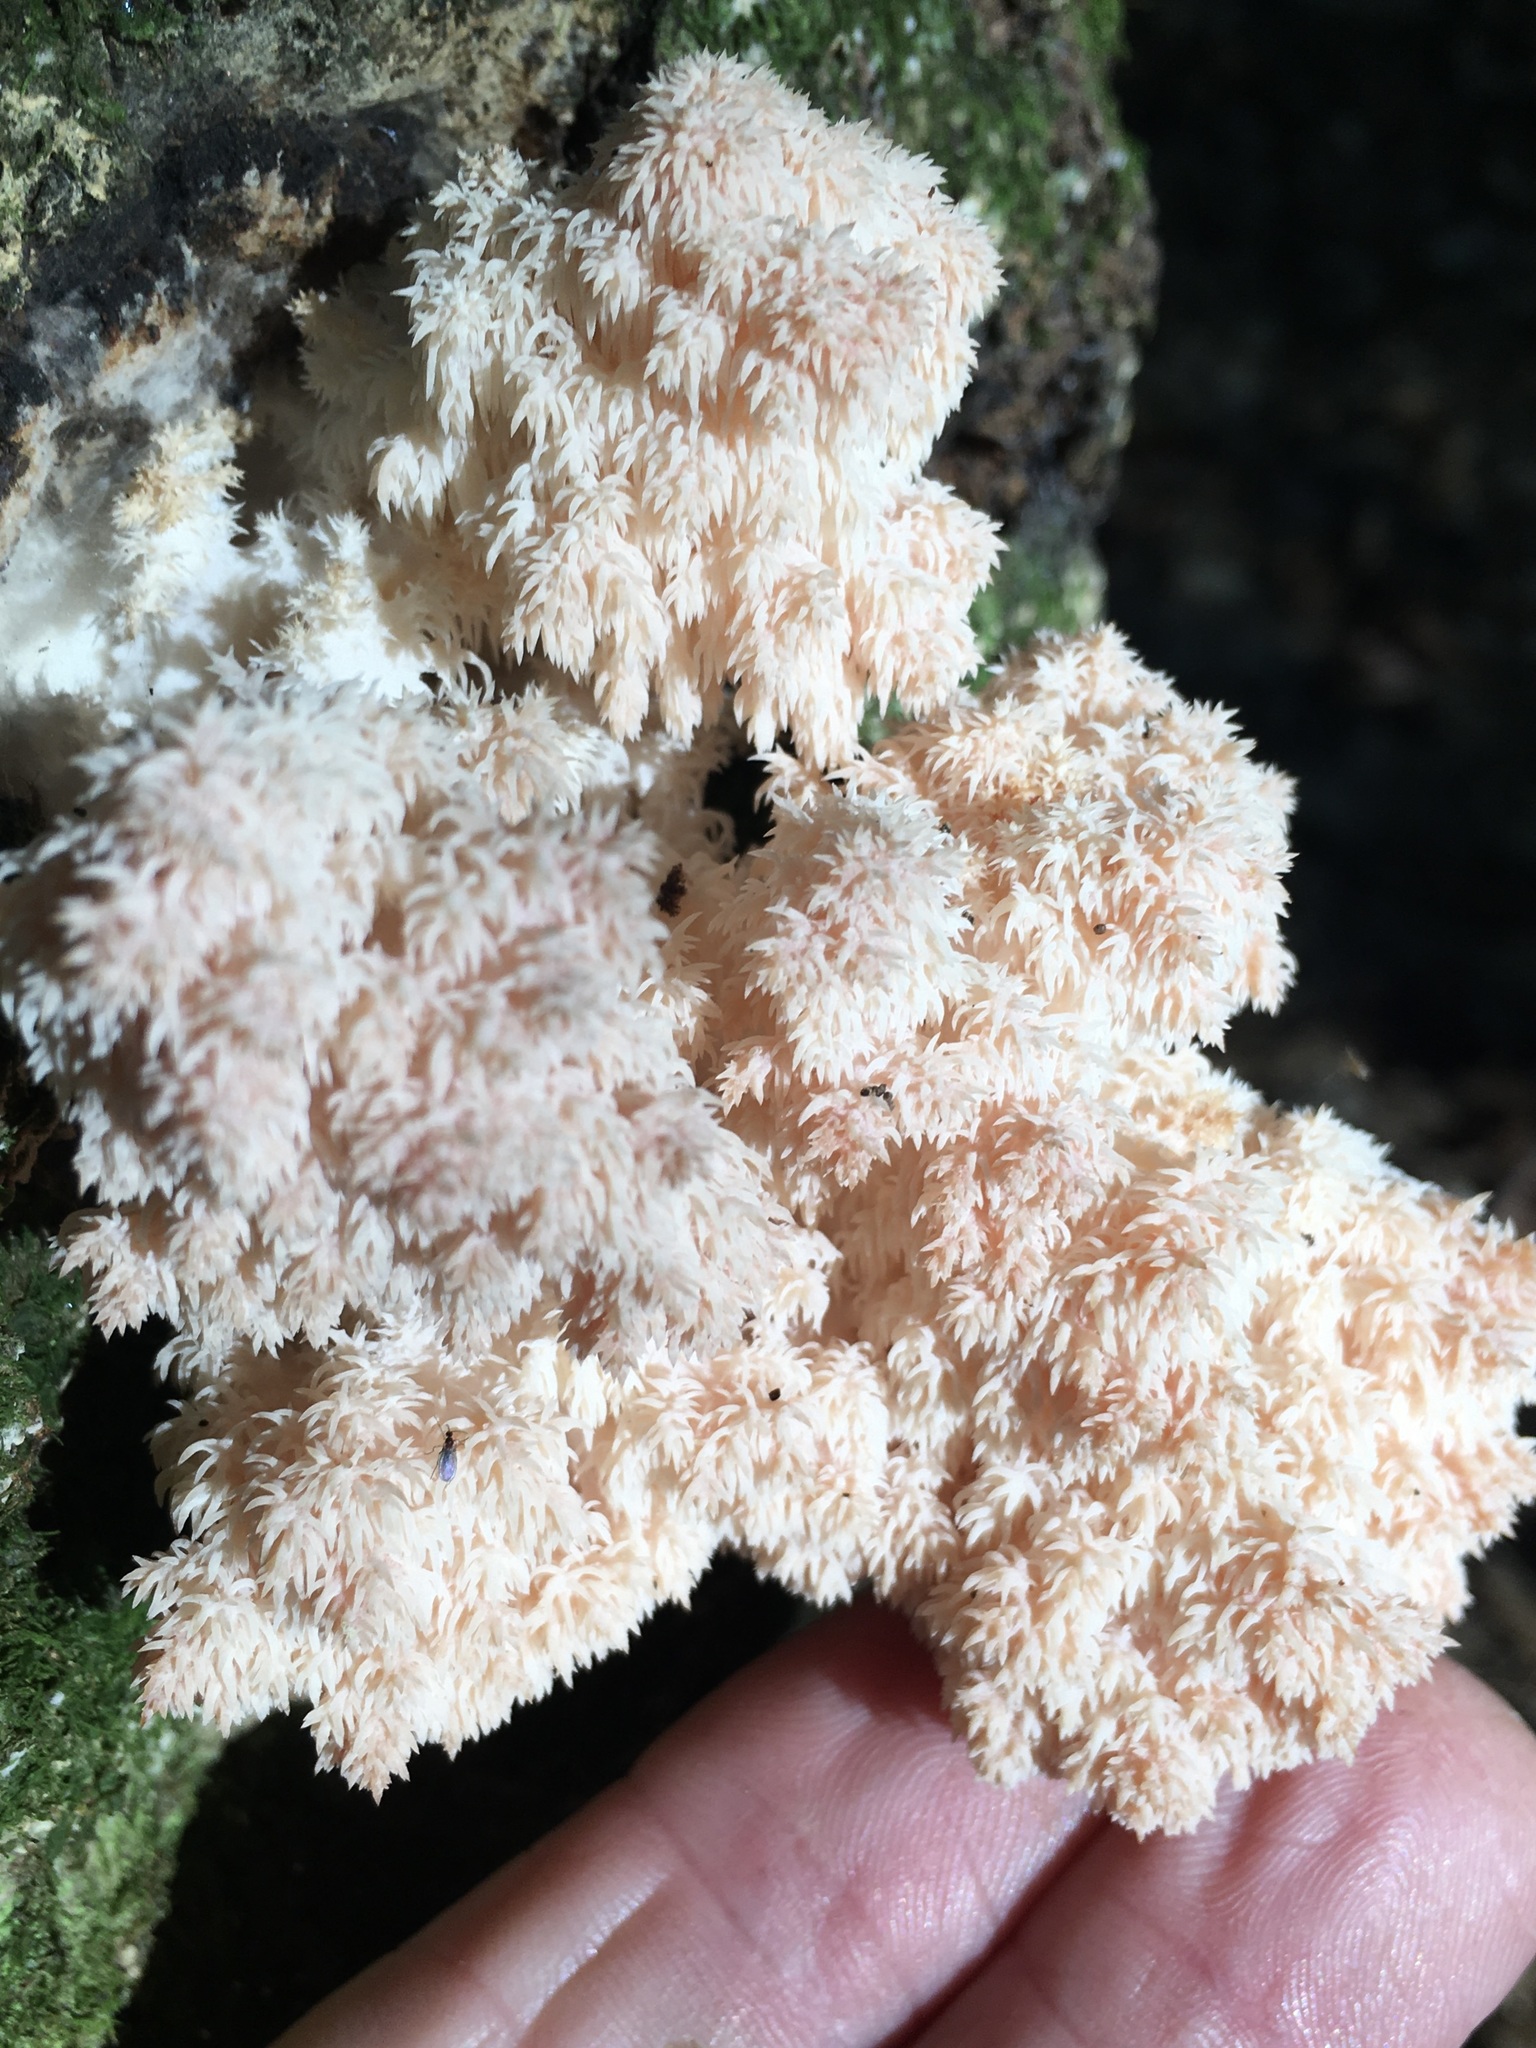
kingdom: Fungi
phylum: Basidiomycota
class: Agaricomycetes
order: Russulales
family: Hericiaceae
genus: Hericium
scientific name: Hericium coralloides
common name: Coral tooth
